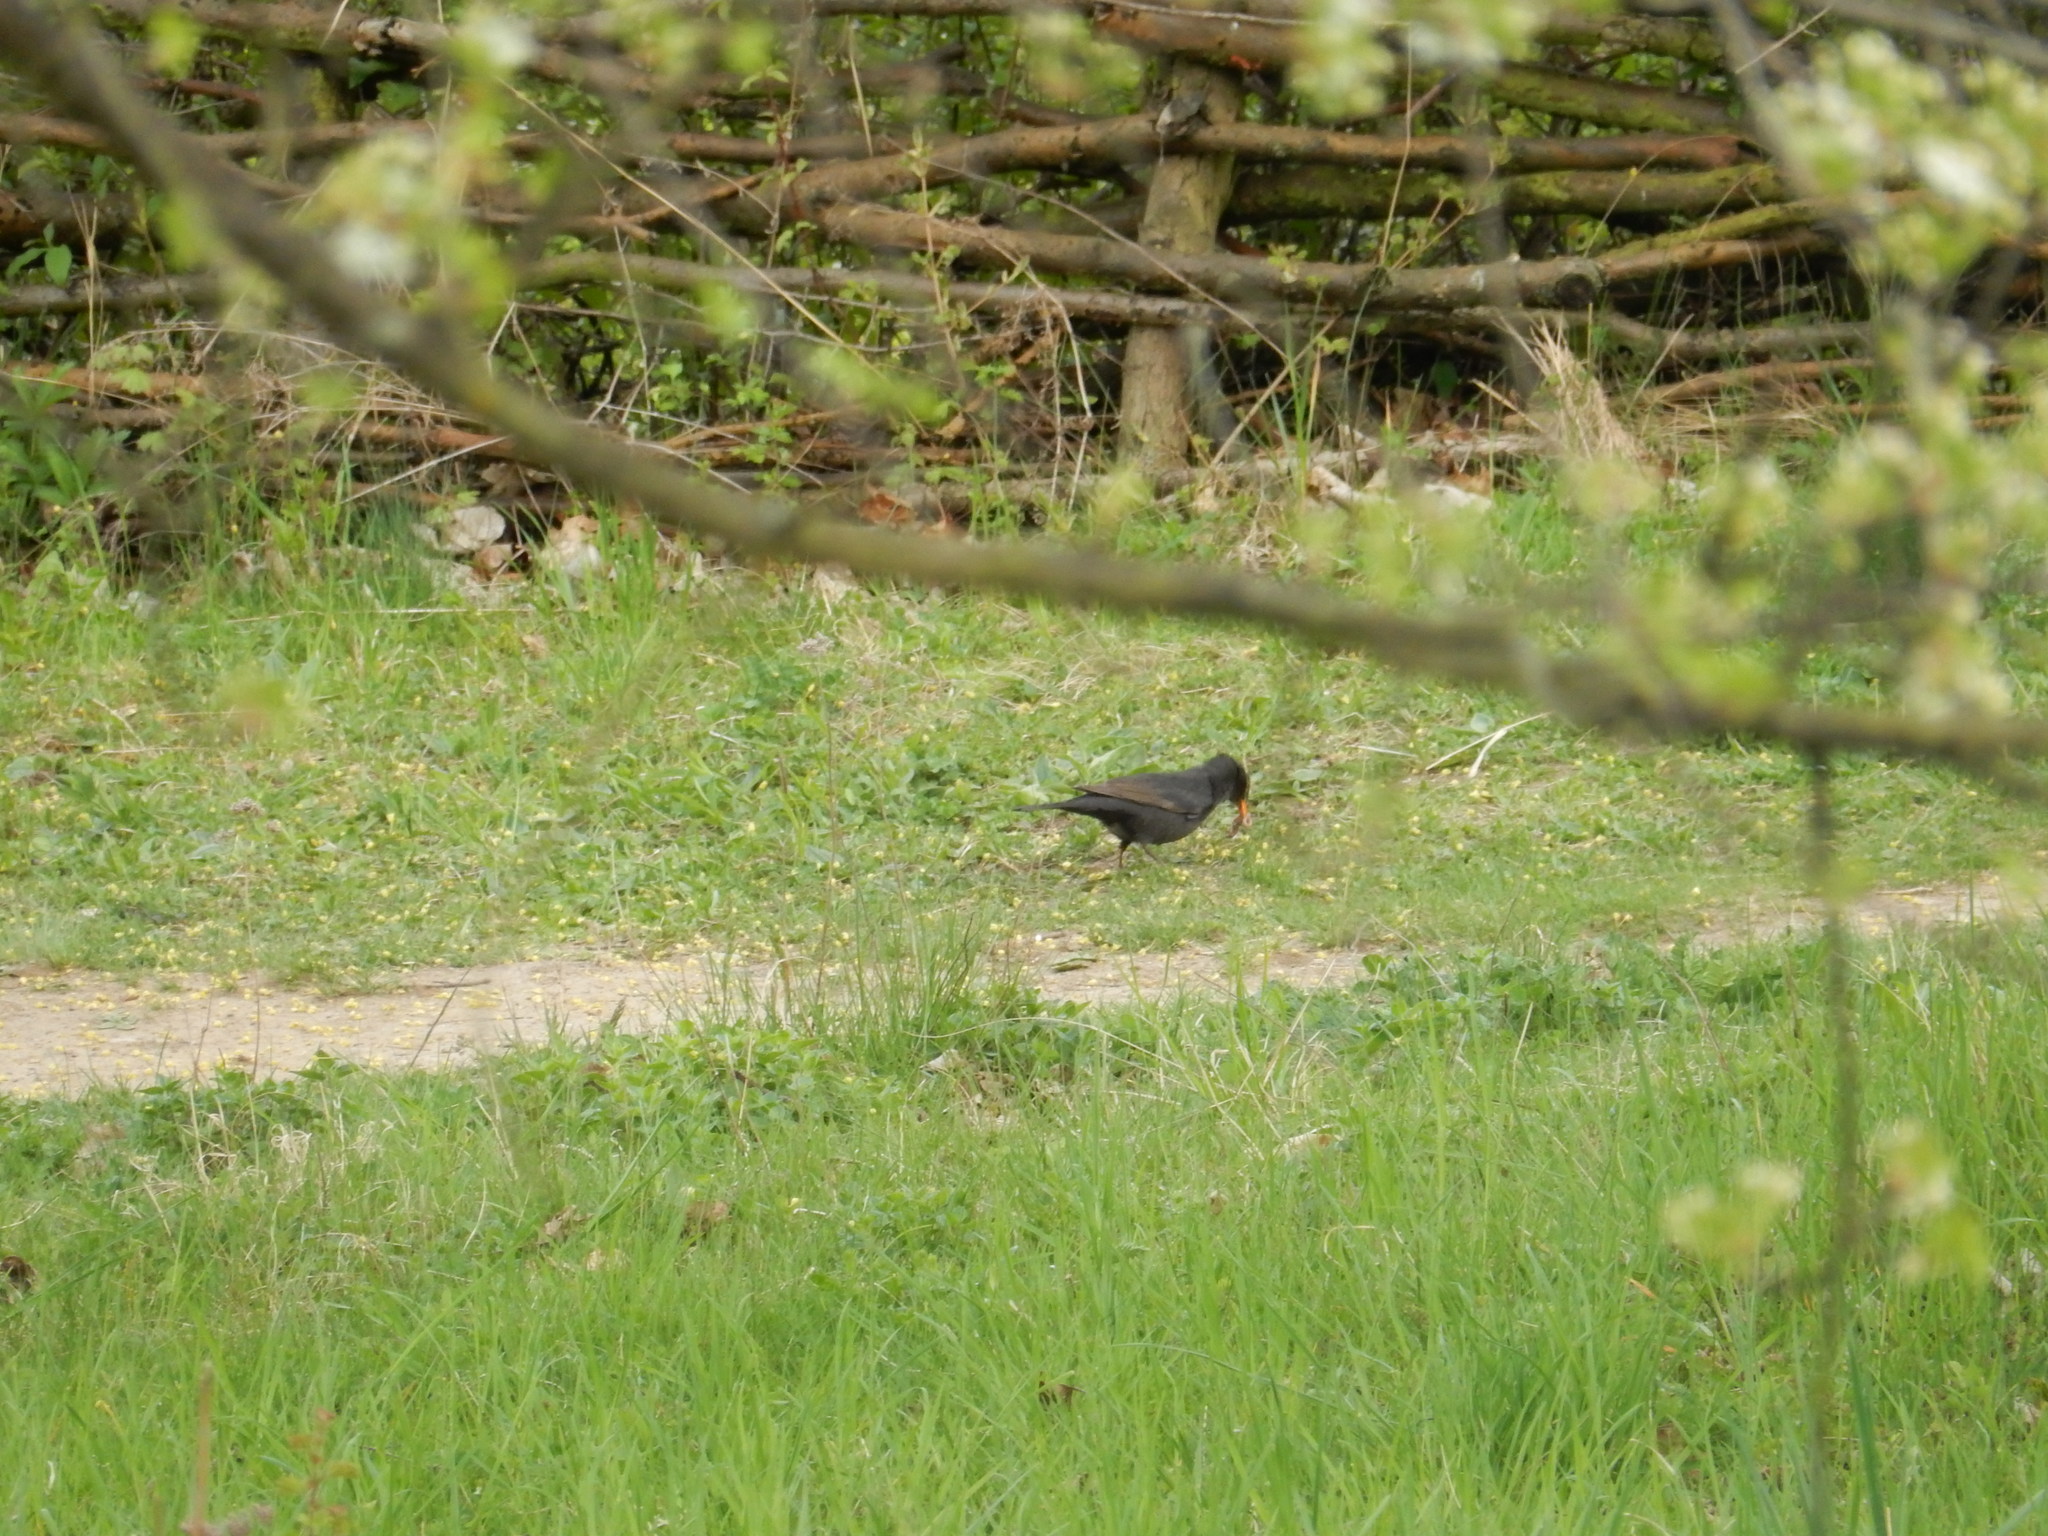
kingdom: Animalia
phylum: Chordata
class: Aves
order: Passeriformes
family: Turdidae
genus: Turdus
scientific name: Turdus merula
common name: Common blackbird
